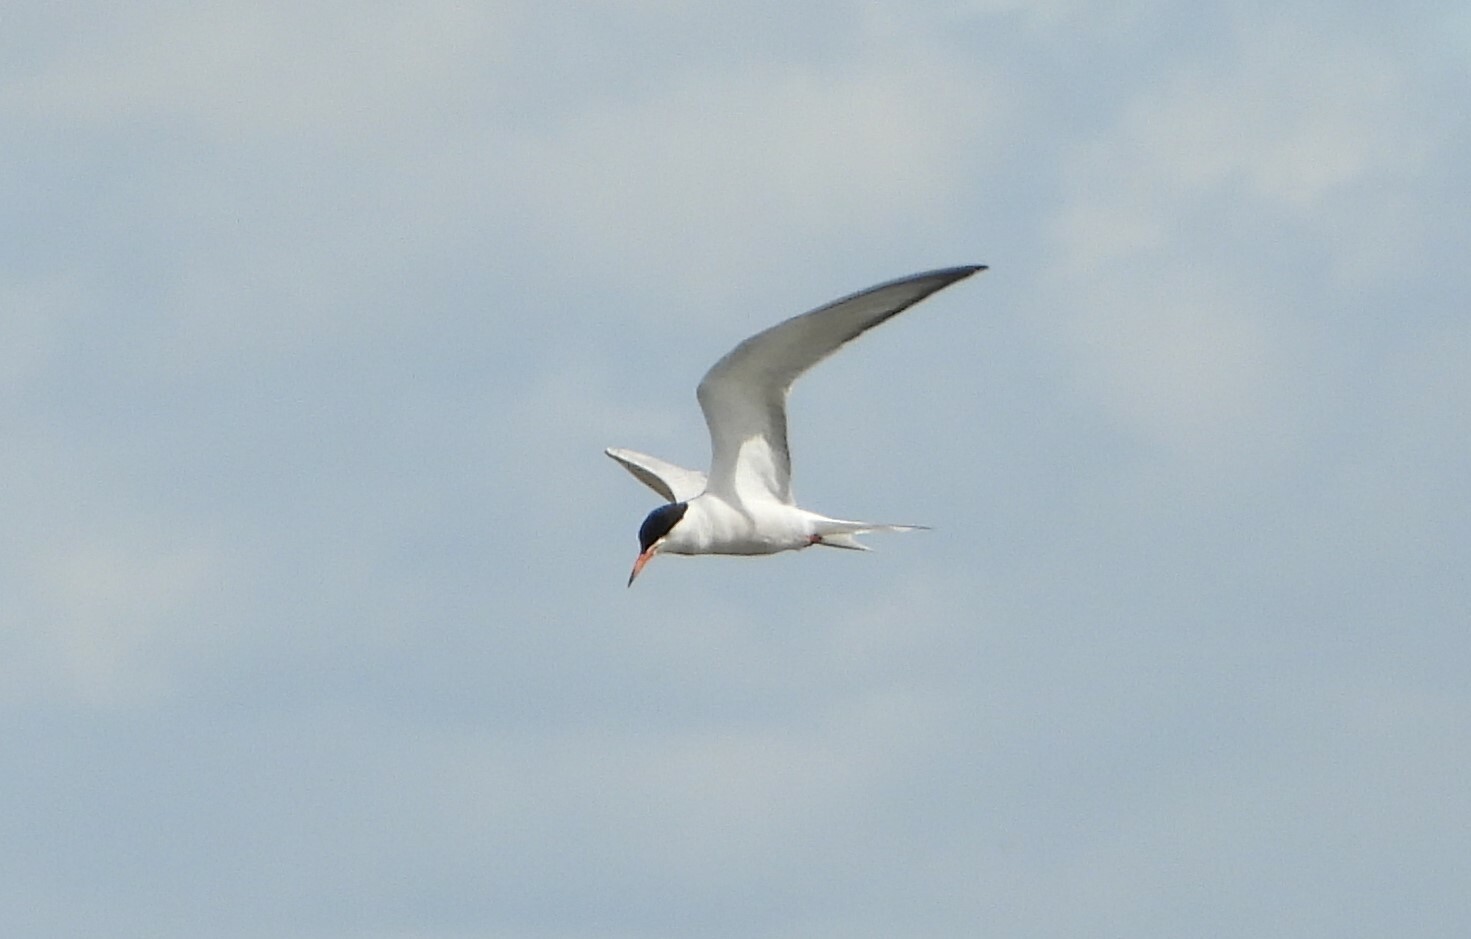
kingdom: Animalia
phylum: Chordata
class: Aves
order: Charadriiformes
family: Laridae
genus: Sterna
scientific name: Sterna hirundo
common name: Common tern
